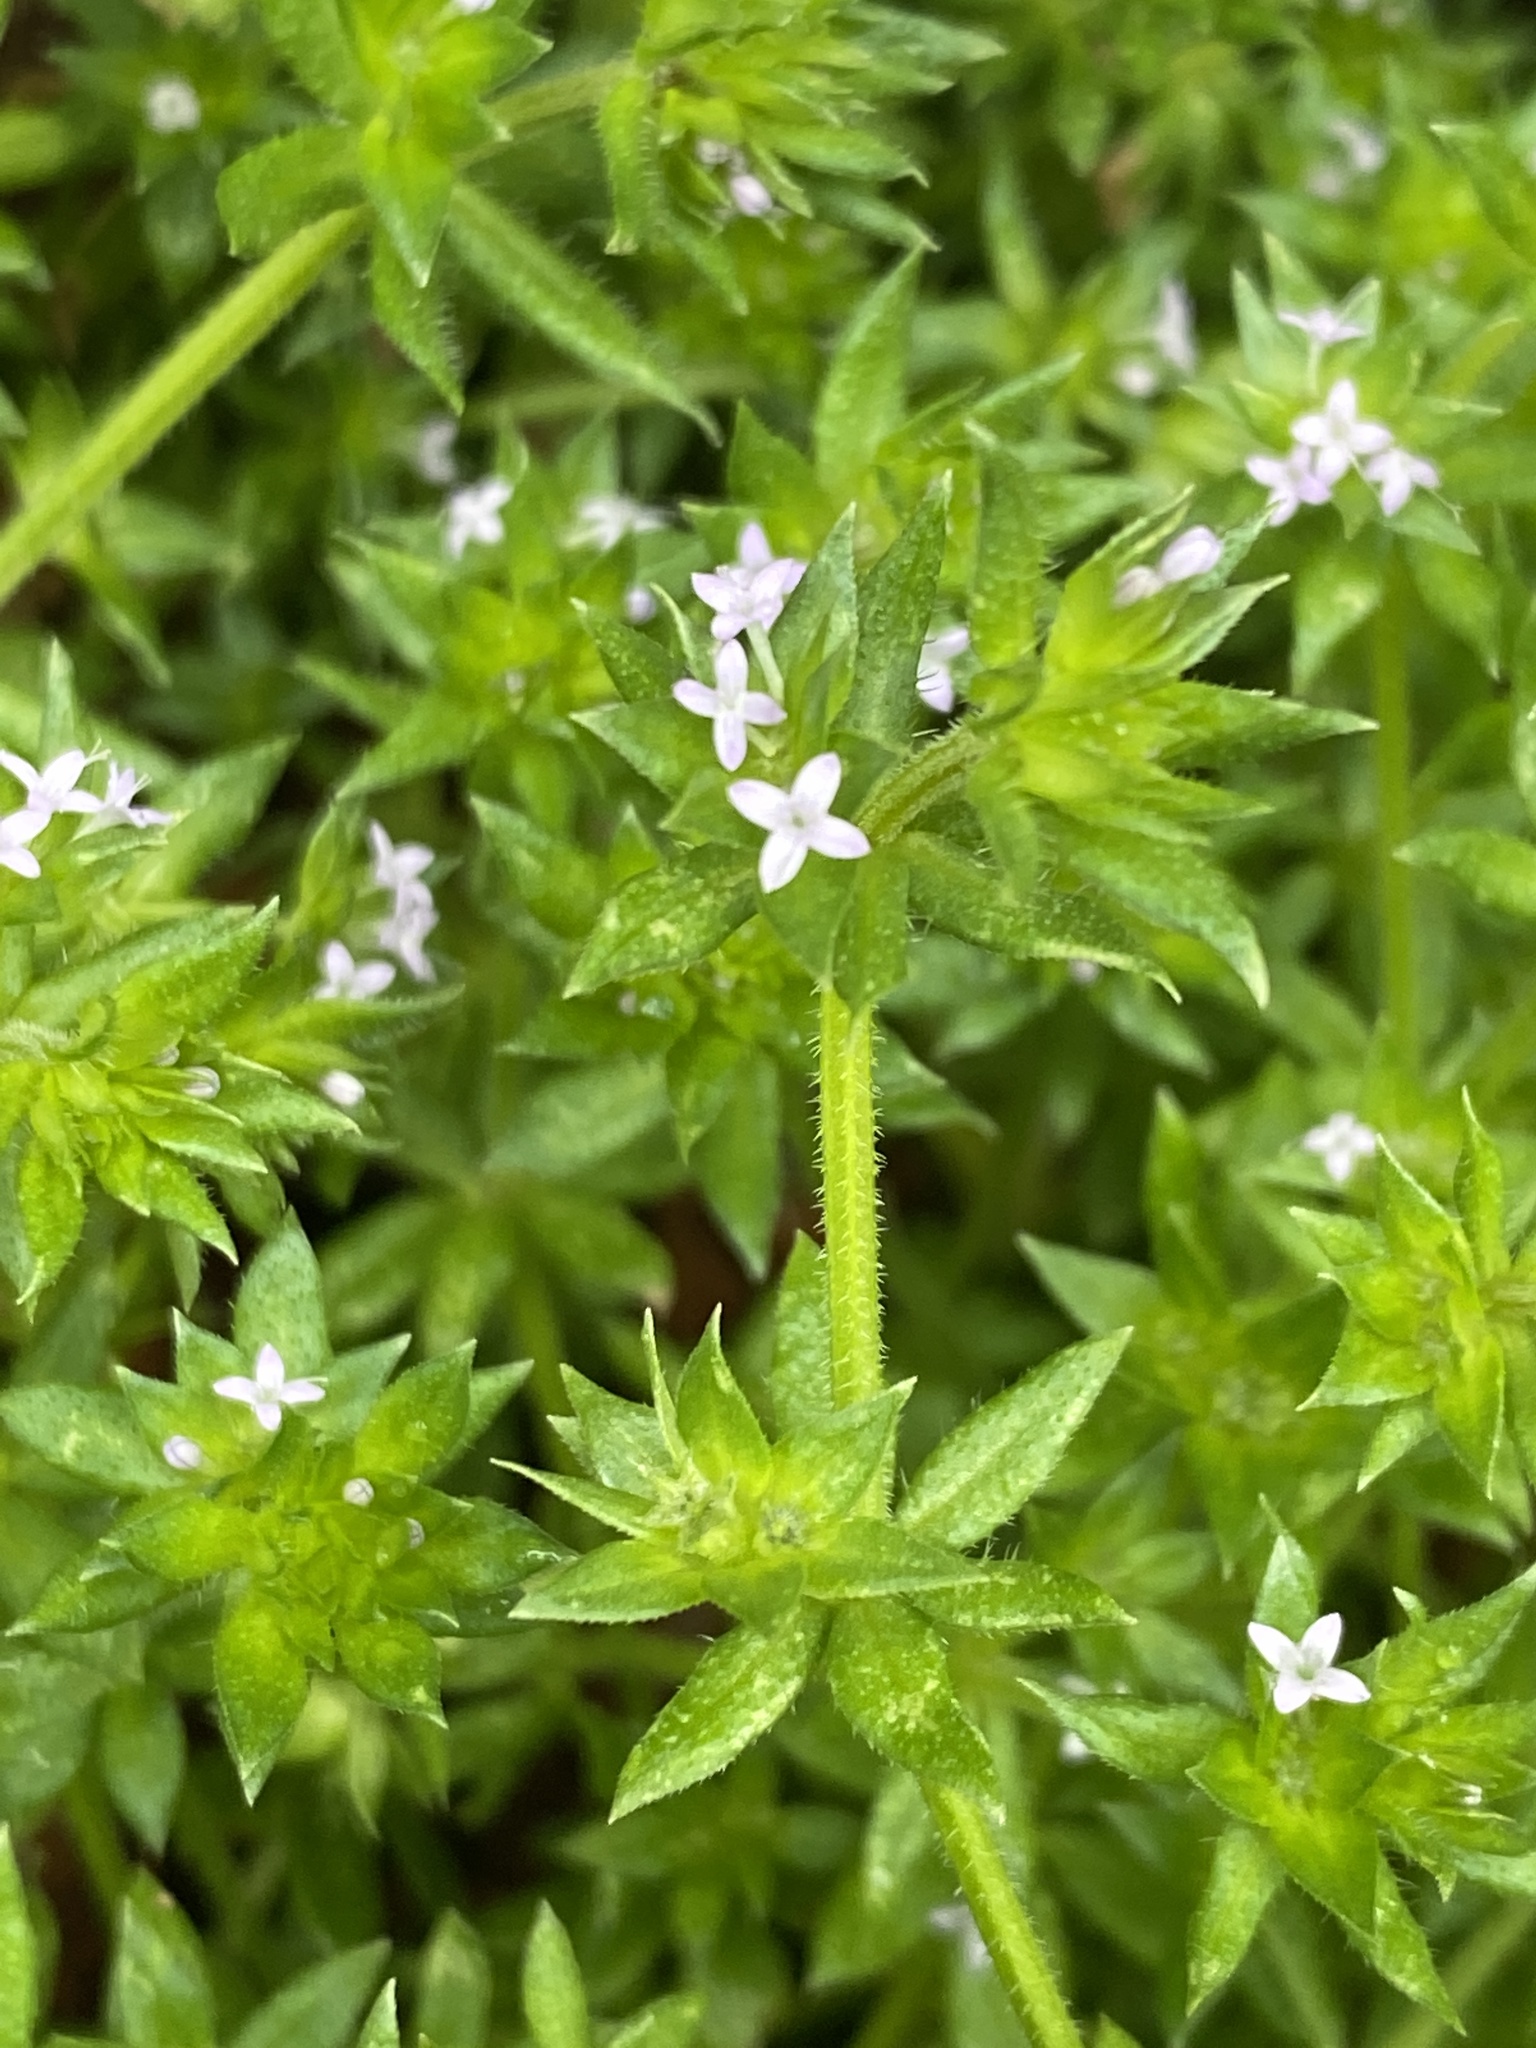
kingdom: Plantae
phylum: Tracheophyta
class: Magnoliopsida
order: Gentianales
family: Rubiaceae
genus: Sherardia
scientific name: Sherardia arvensis
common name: Field madder
